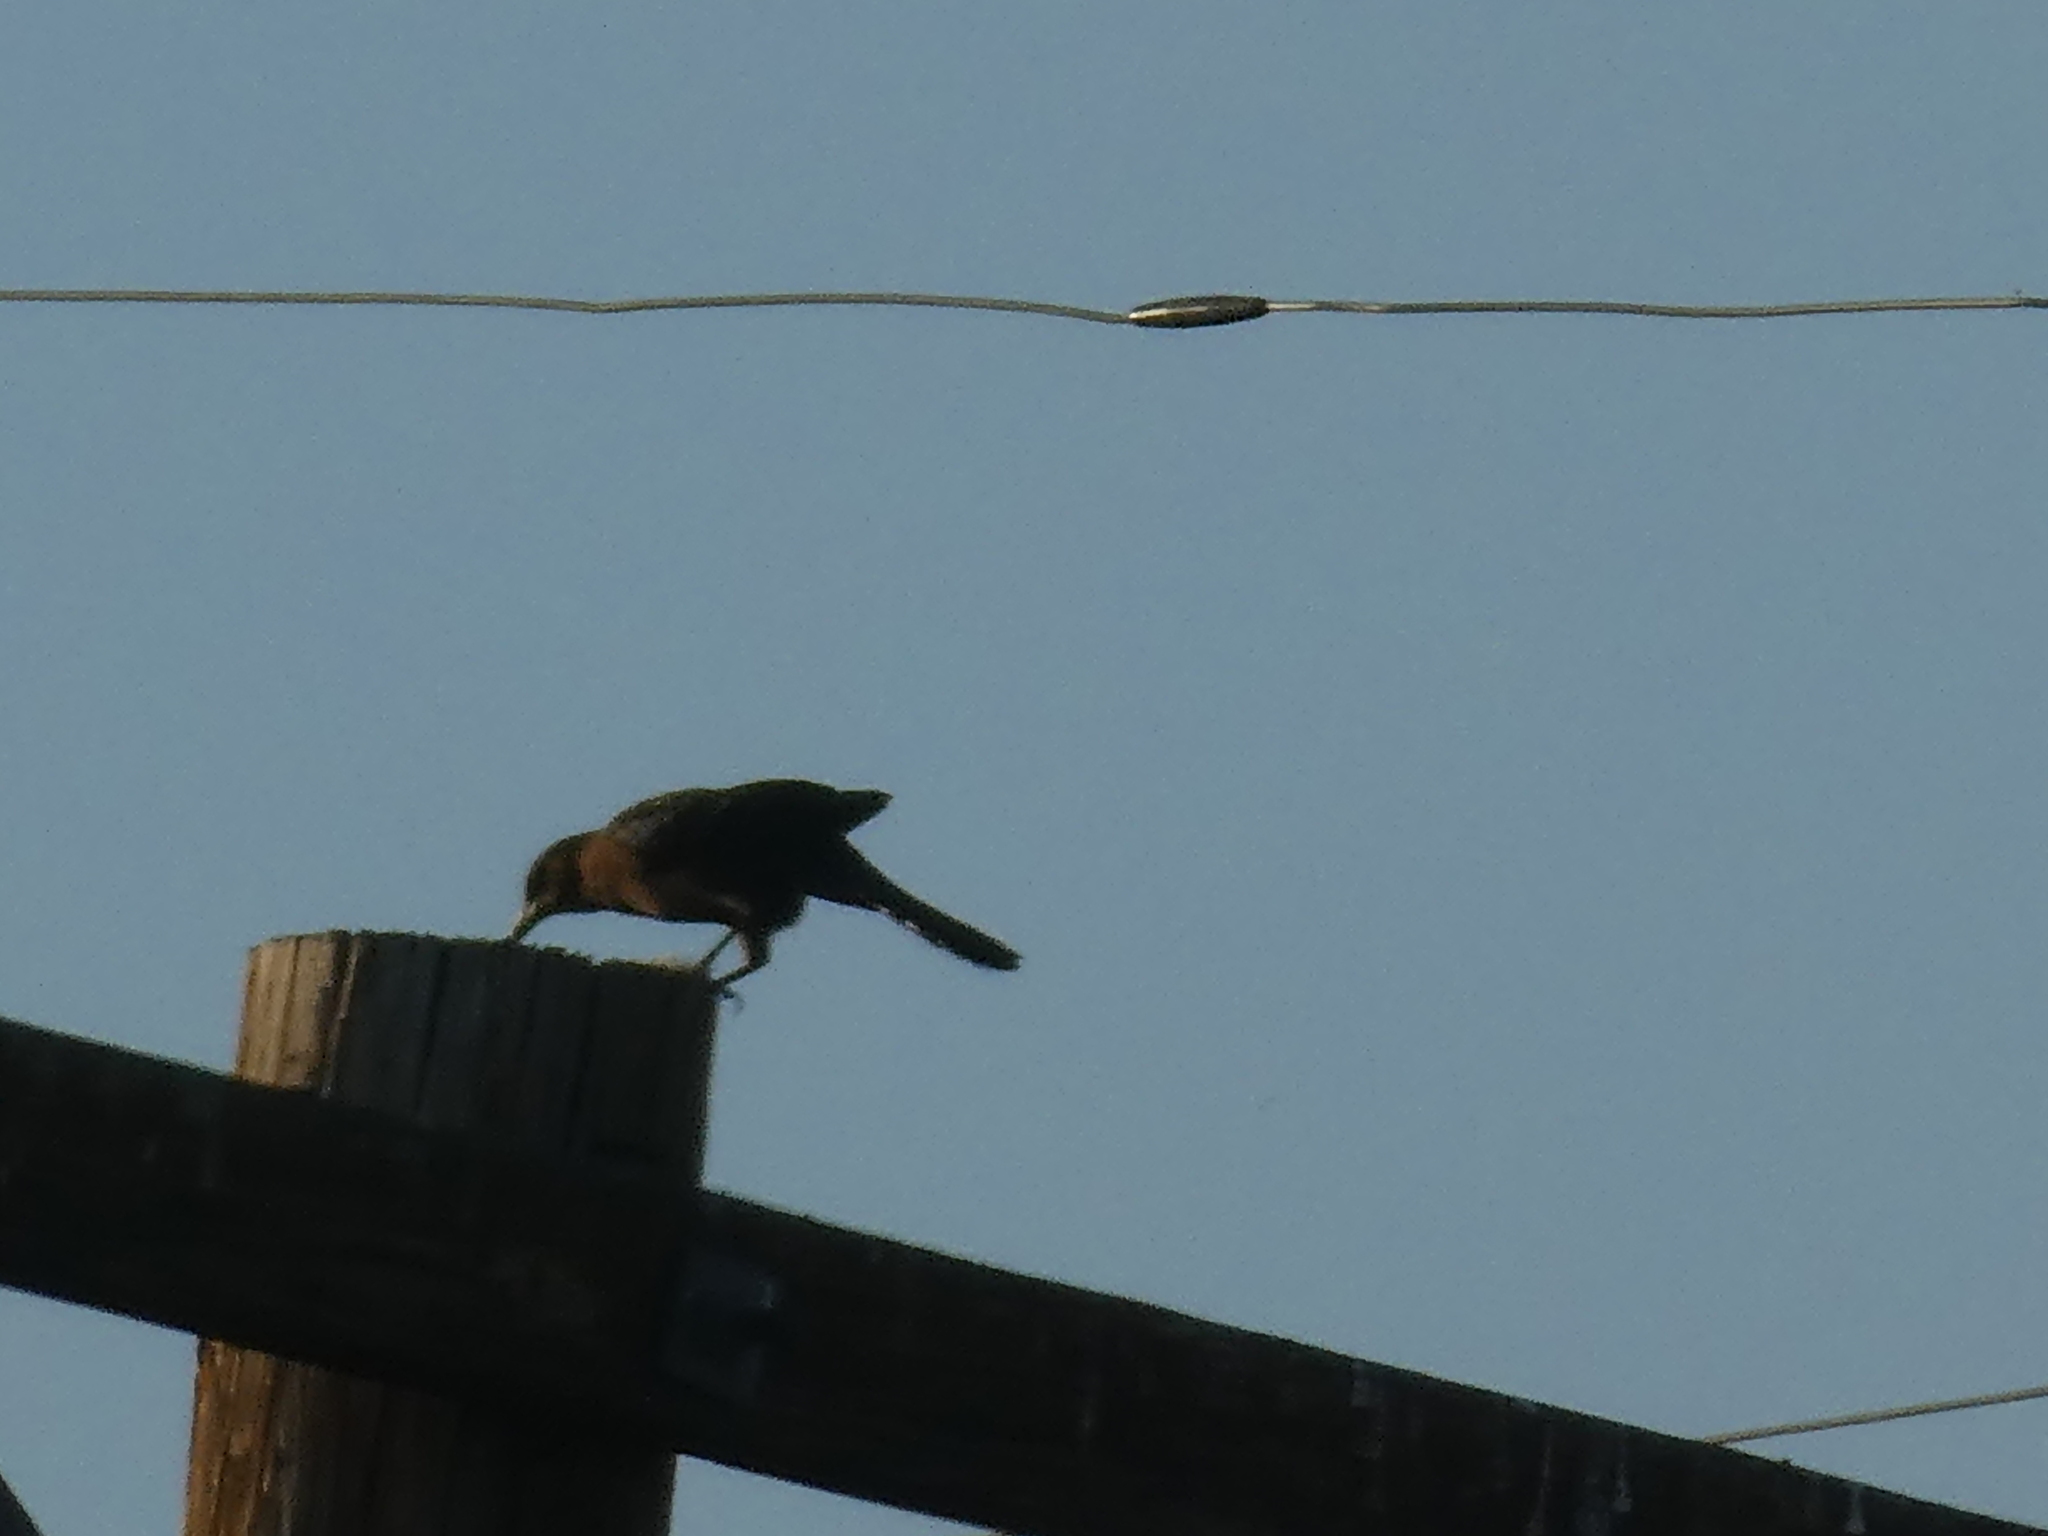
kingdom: Animalia
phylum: Chordata
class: Aves
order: Passeriformes
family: Icteridae
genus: Quiscalus
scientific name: Quiscalus mexicanus
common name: Great-tailed grackle
